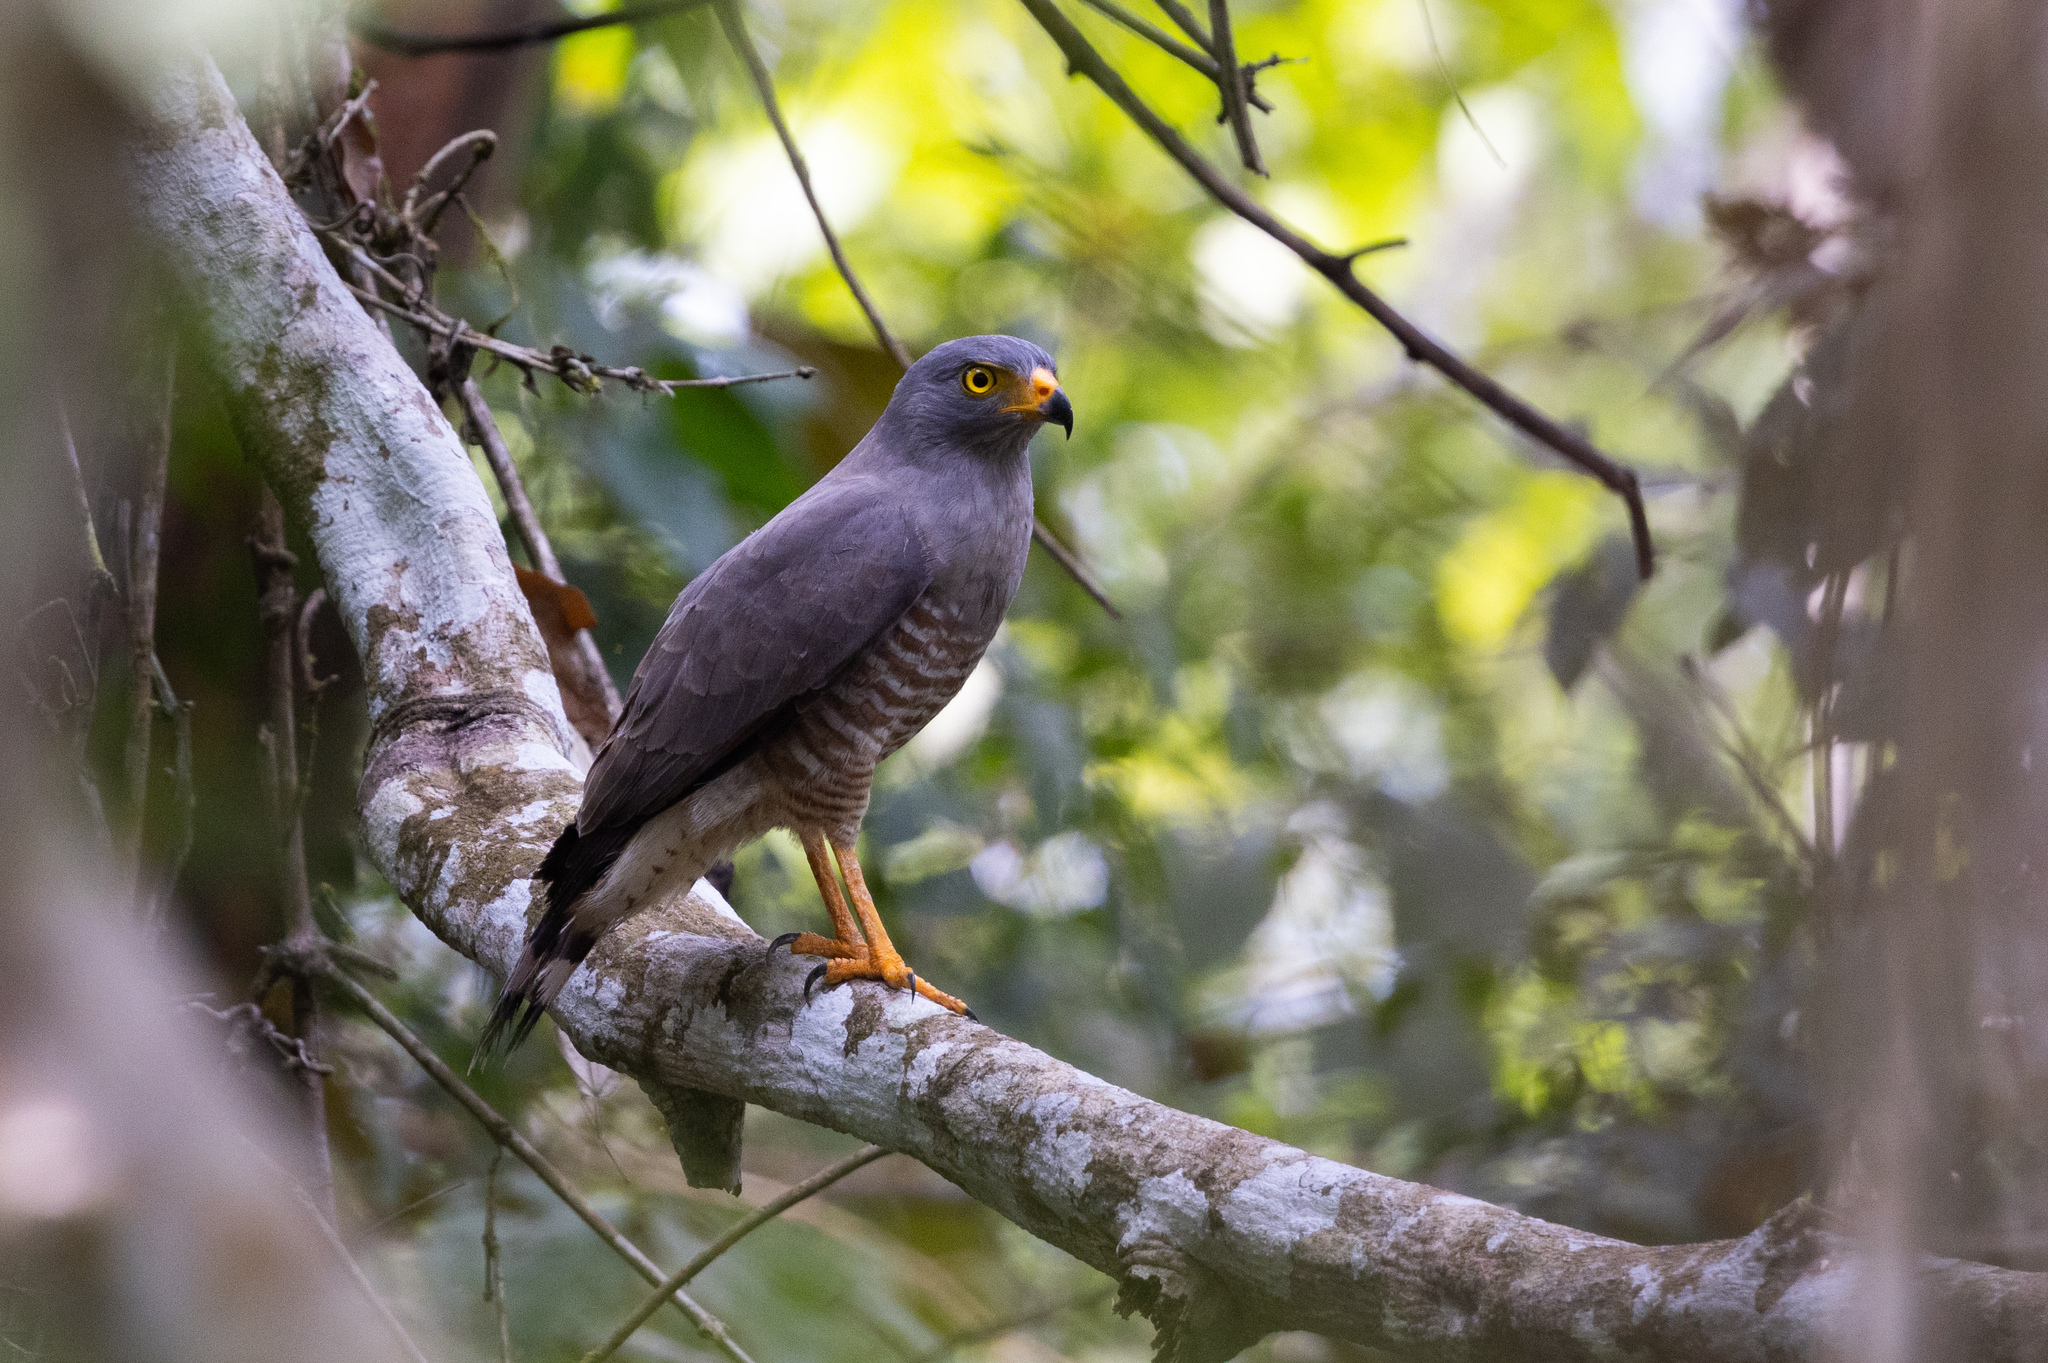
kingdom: Animalia
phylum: Chordata
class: Aves
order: Accipitriformes
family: Accipitridae
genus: Rupornis
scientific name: Rupornis magnirostris
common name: Roadside hawk
